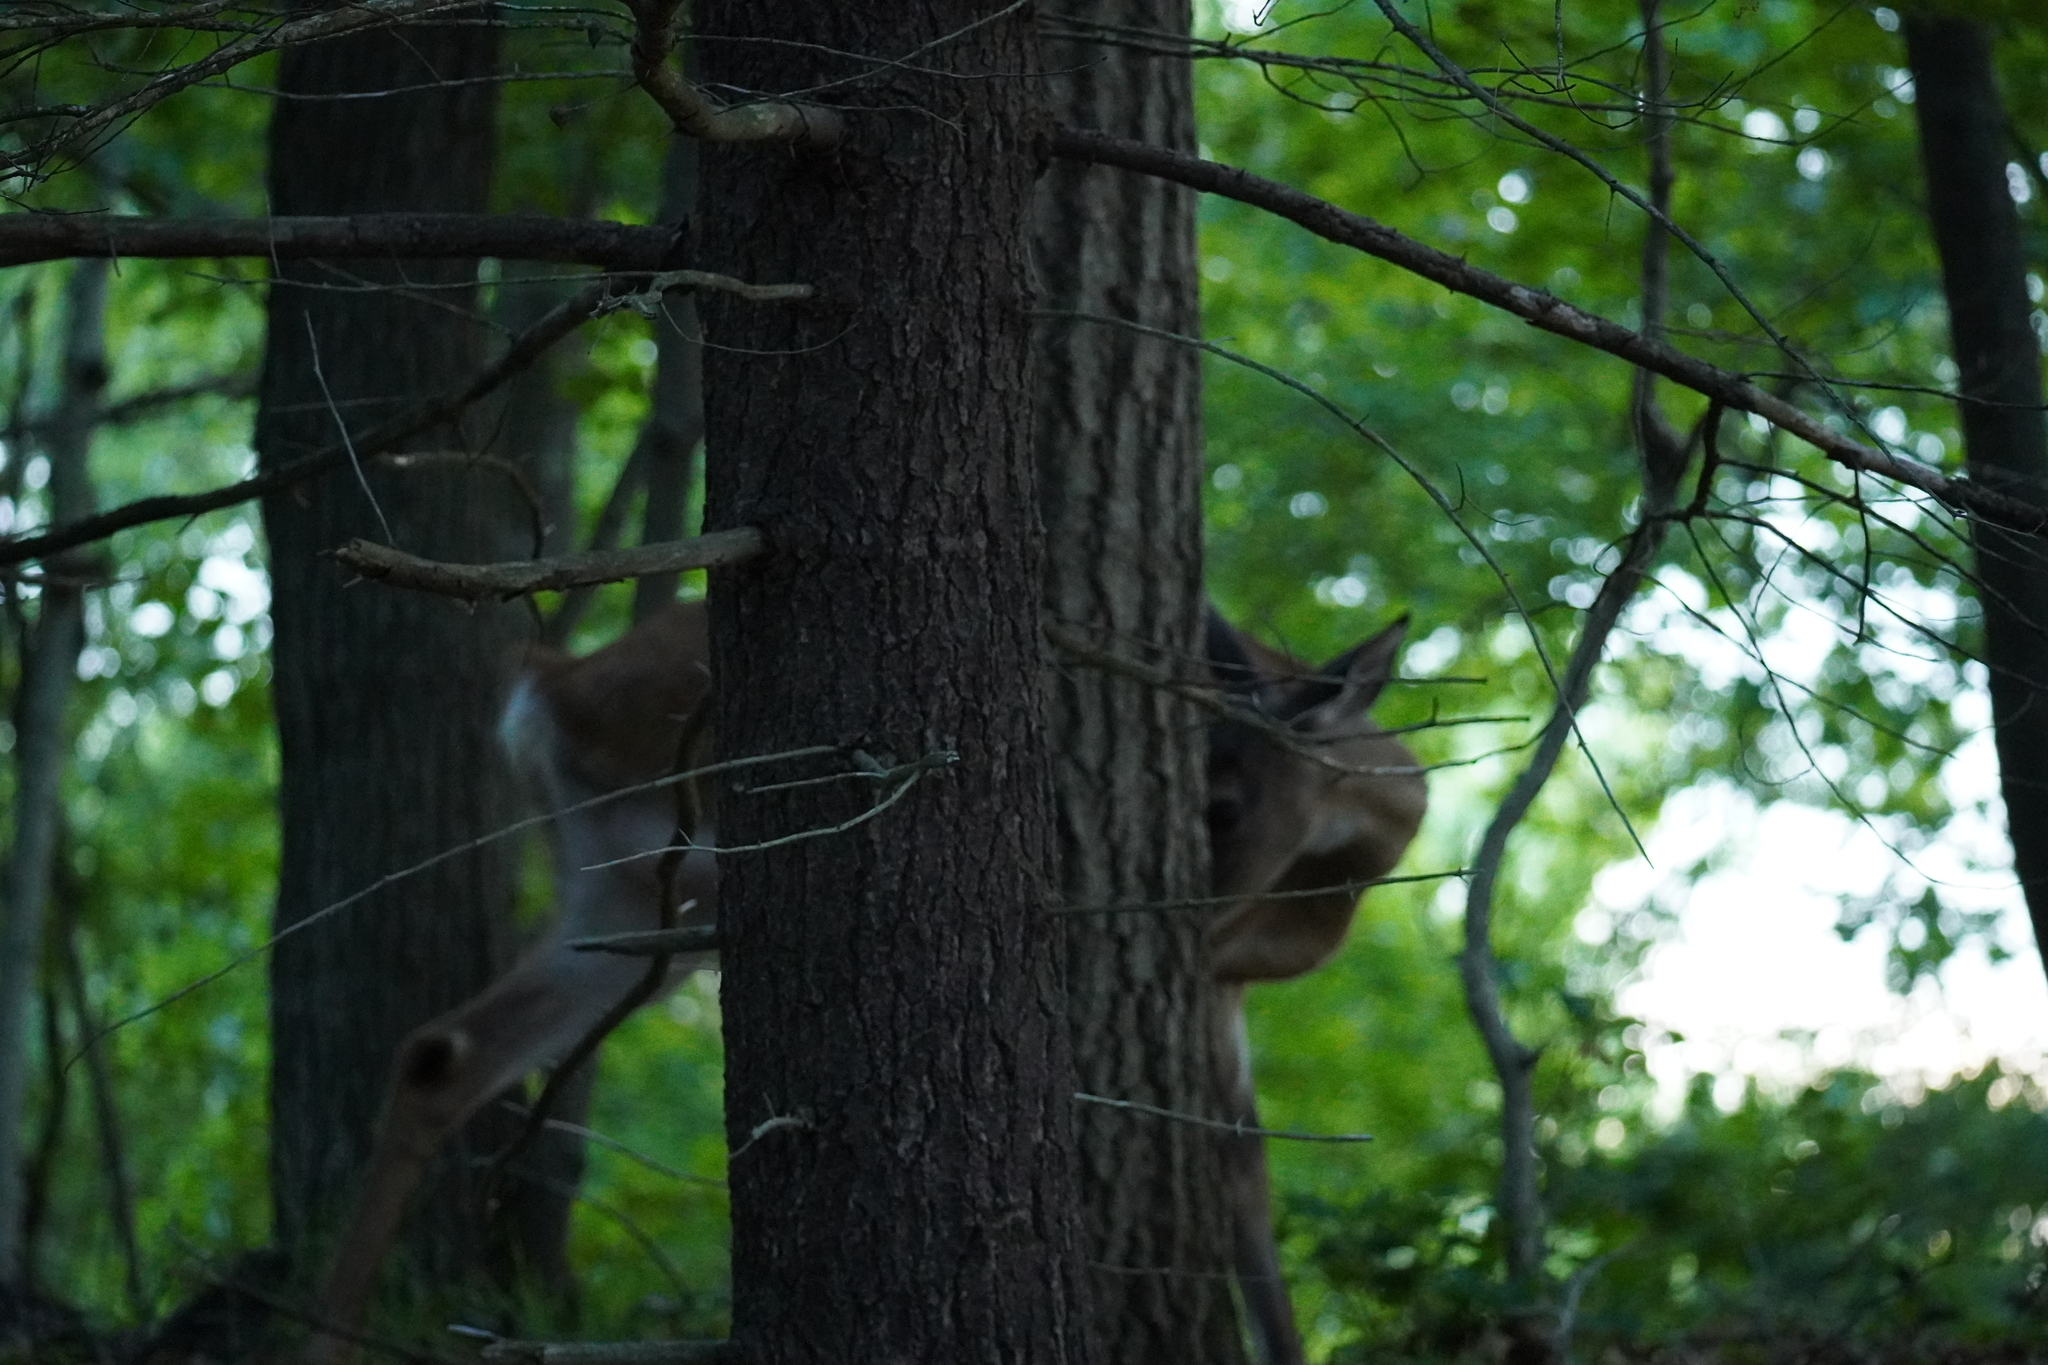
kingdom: Animalia
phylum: Chordata
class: Mammalia
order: Artiodactyla
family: Cervidae
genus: Odocoileus
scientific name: Odocoileus virginianus
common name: White-tailed deer
